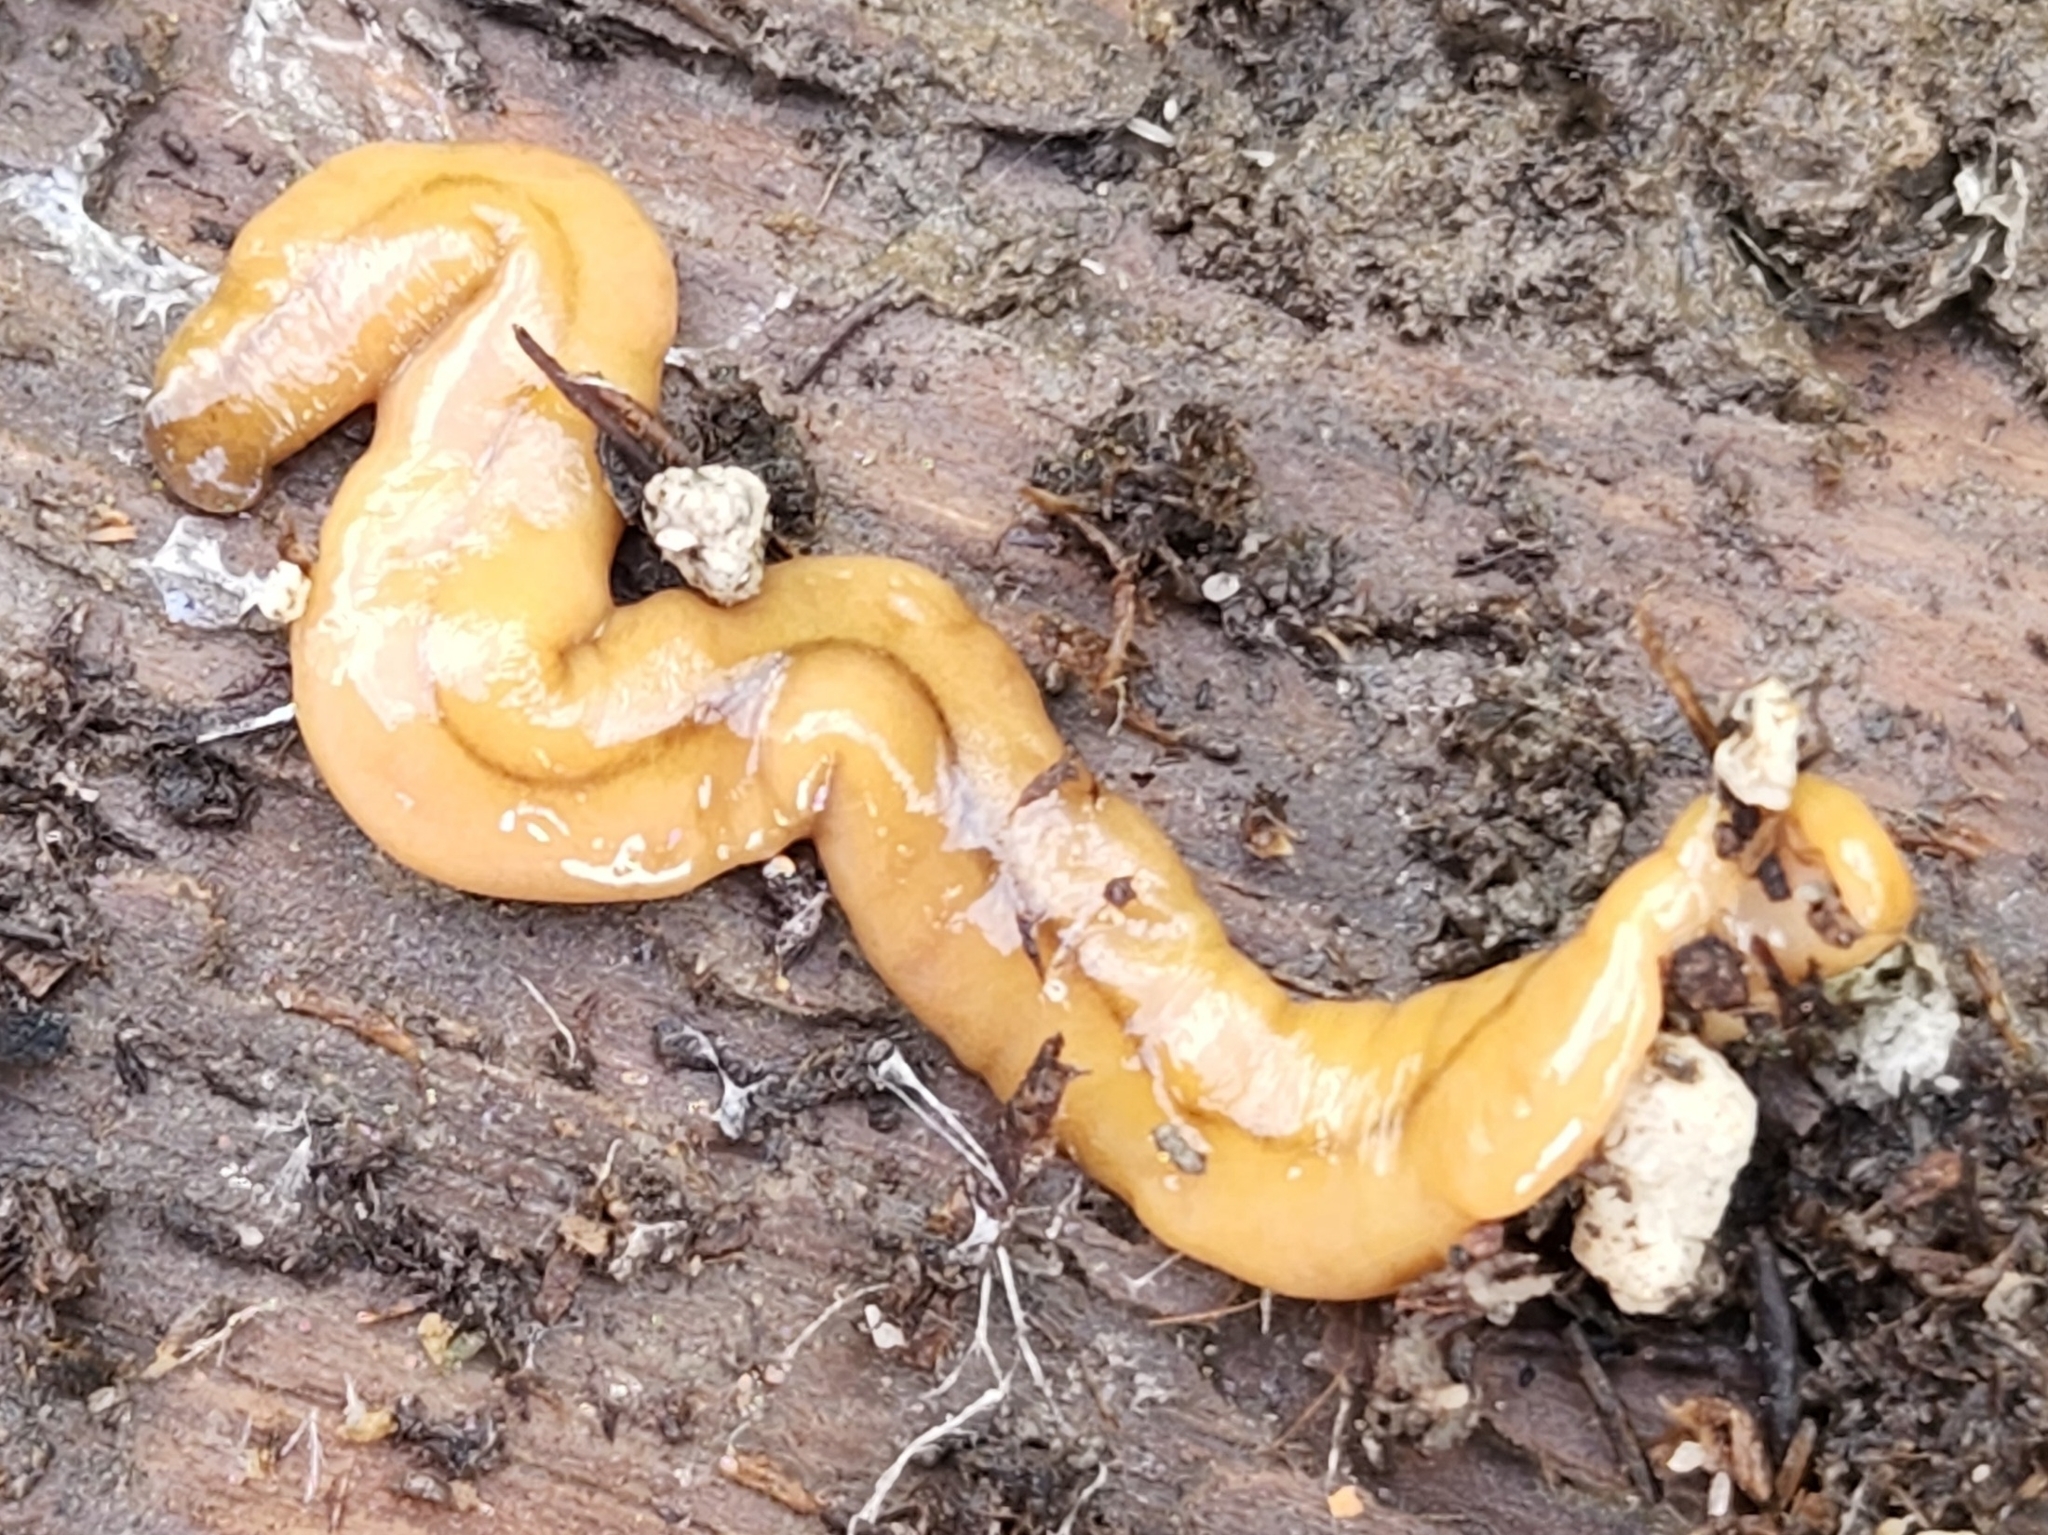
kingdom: Animalia
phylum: Platyhelminthes
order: Tricladida
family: Geoplanidae
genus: Bipalium
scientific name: Bipalium adventitium
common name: Land planarian
